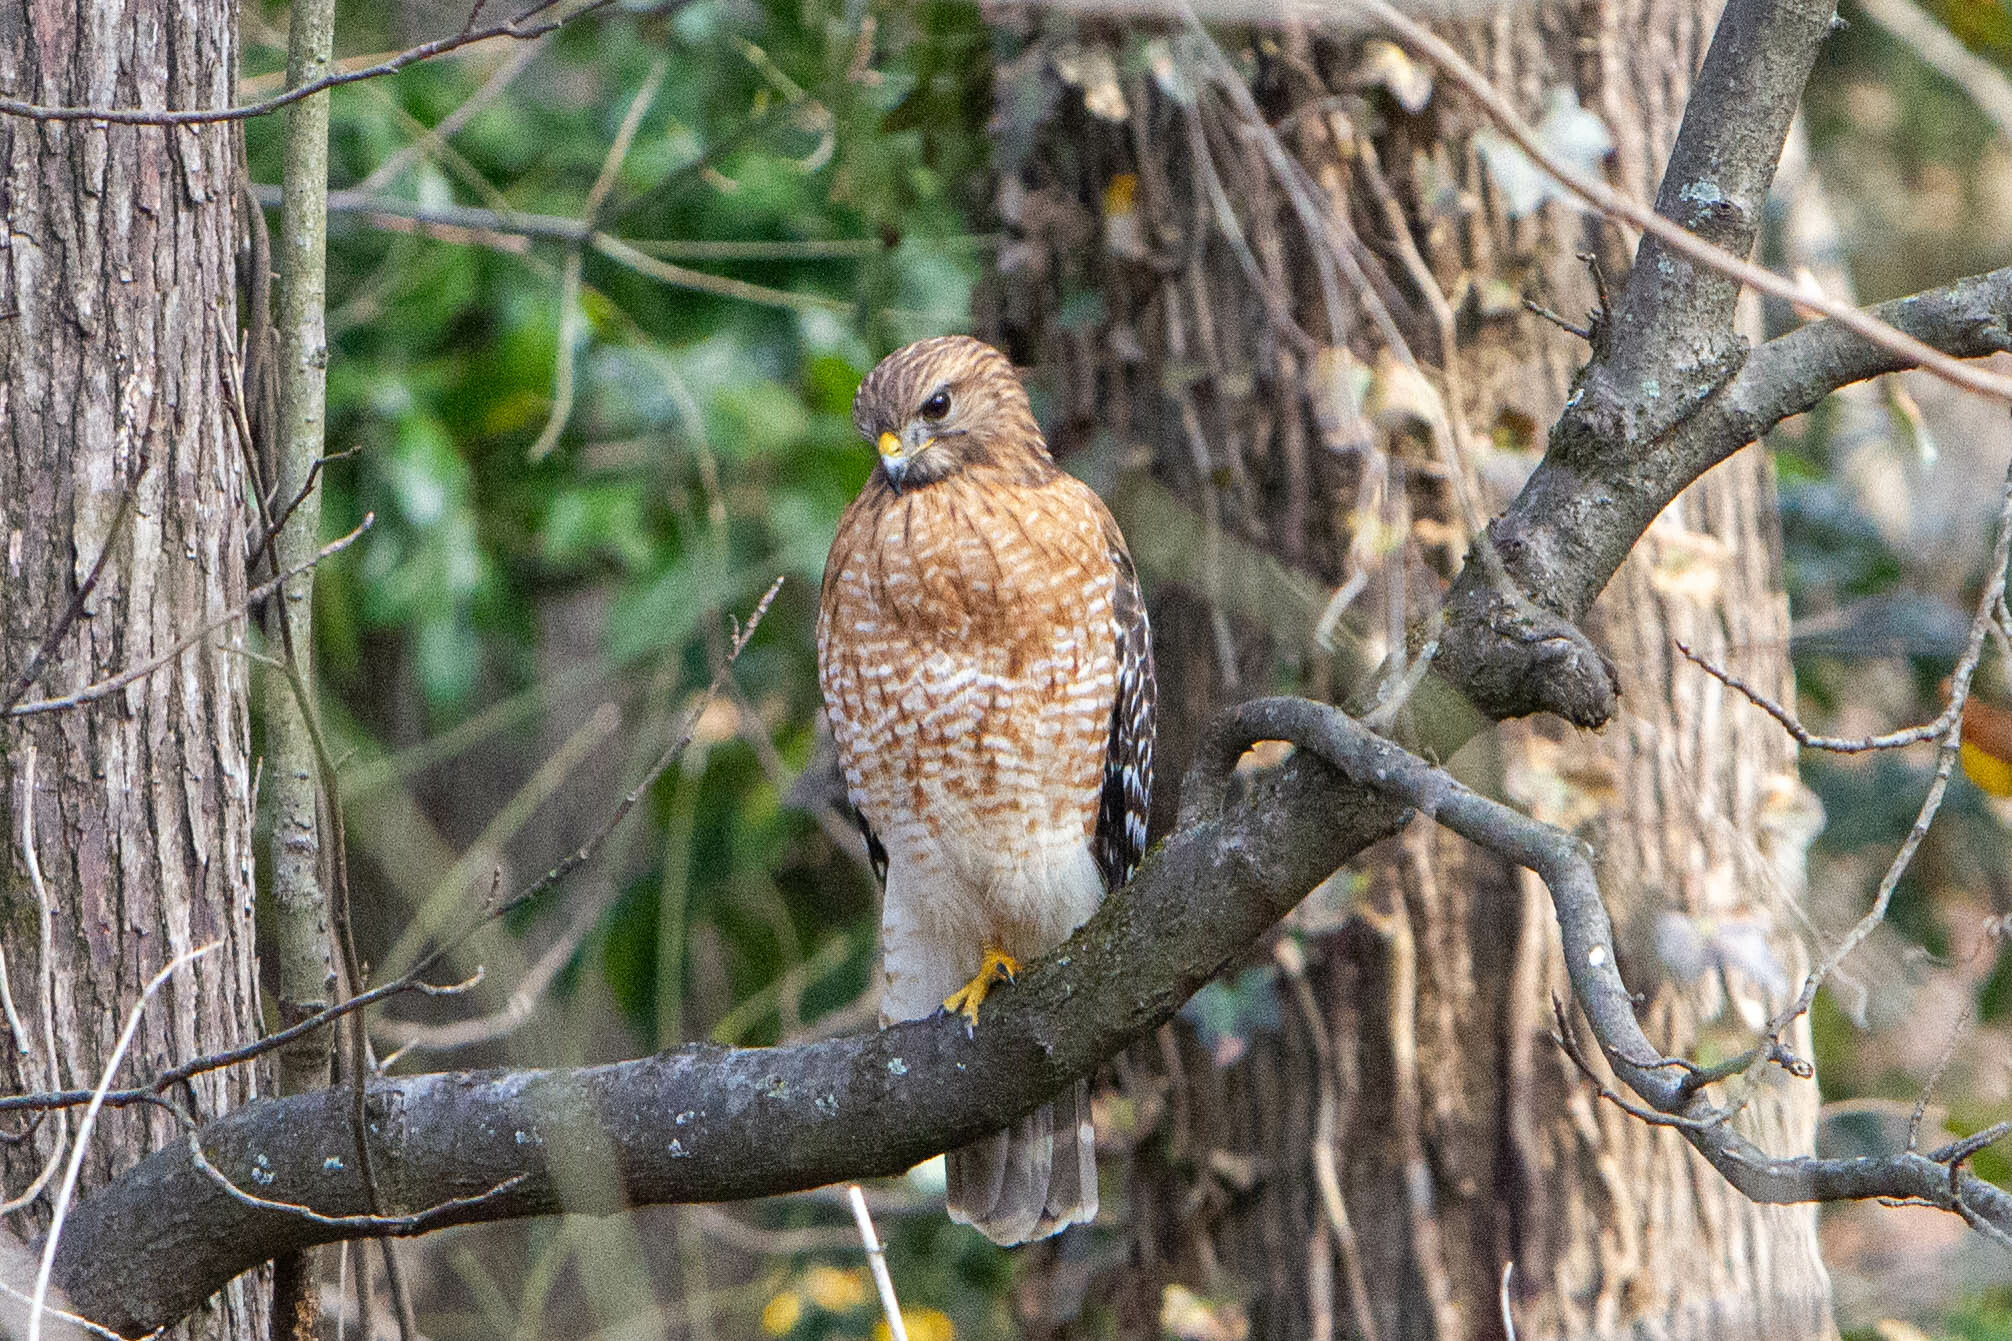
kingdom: Animalia
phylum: Chordata
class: Aves
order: Accipitriformes
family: Accipitridae
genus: Buteo
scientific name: Buteo lineatus
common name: Red-shouldered hawk
